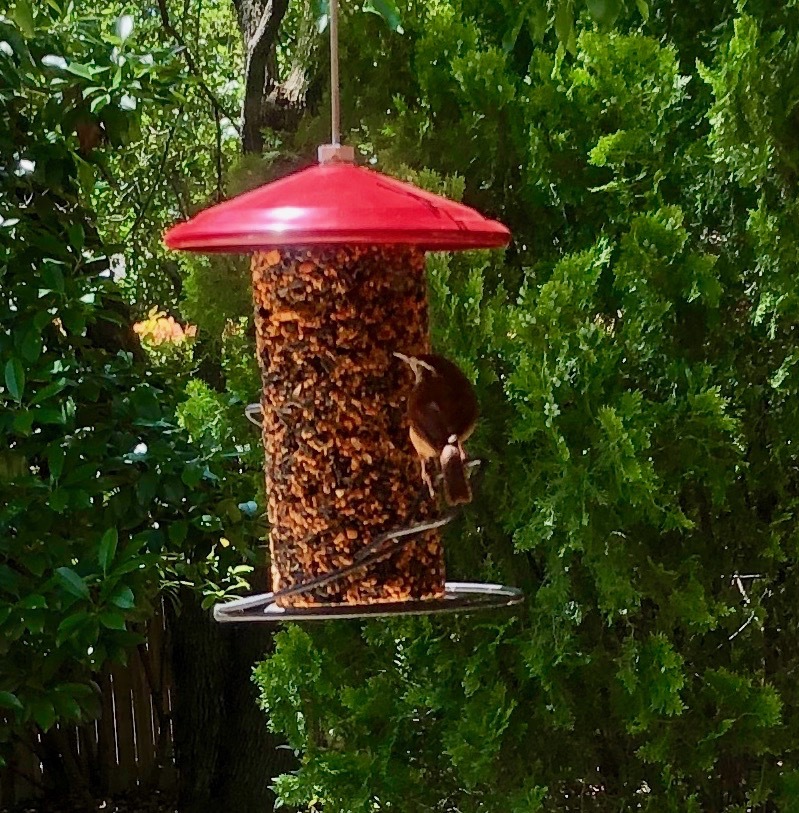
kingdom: Animalia
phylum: Chordata
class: Aves
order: Passeriformes
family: Troglodytidae
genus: Thryothorus
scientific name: Thryothorus ludovicianus
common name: Carolina wren
